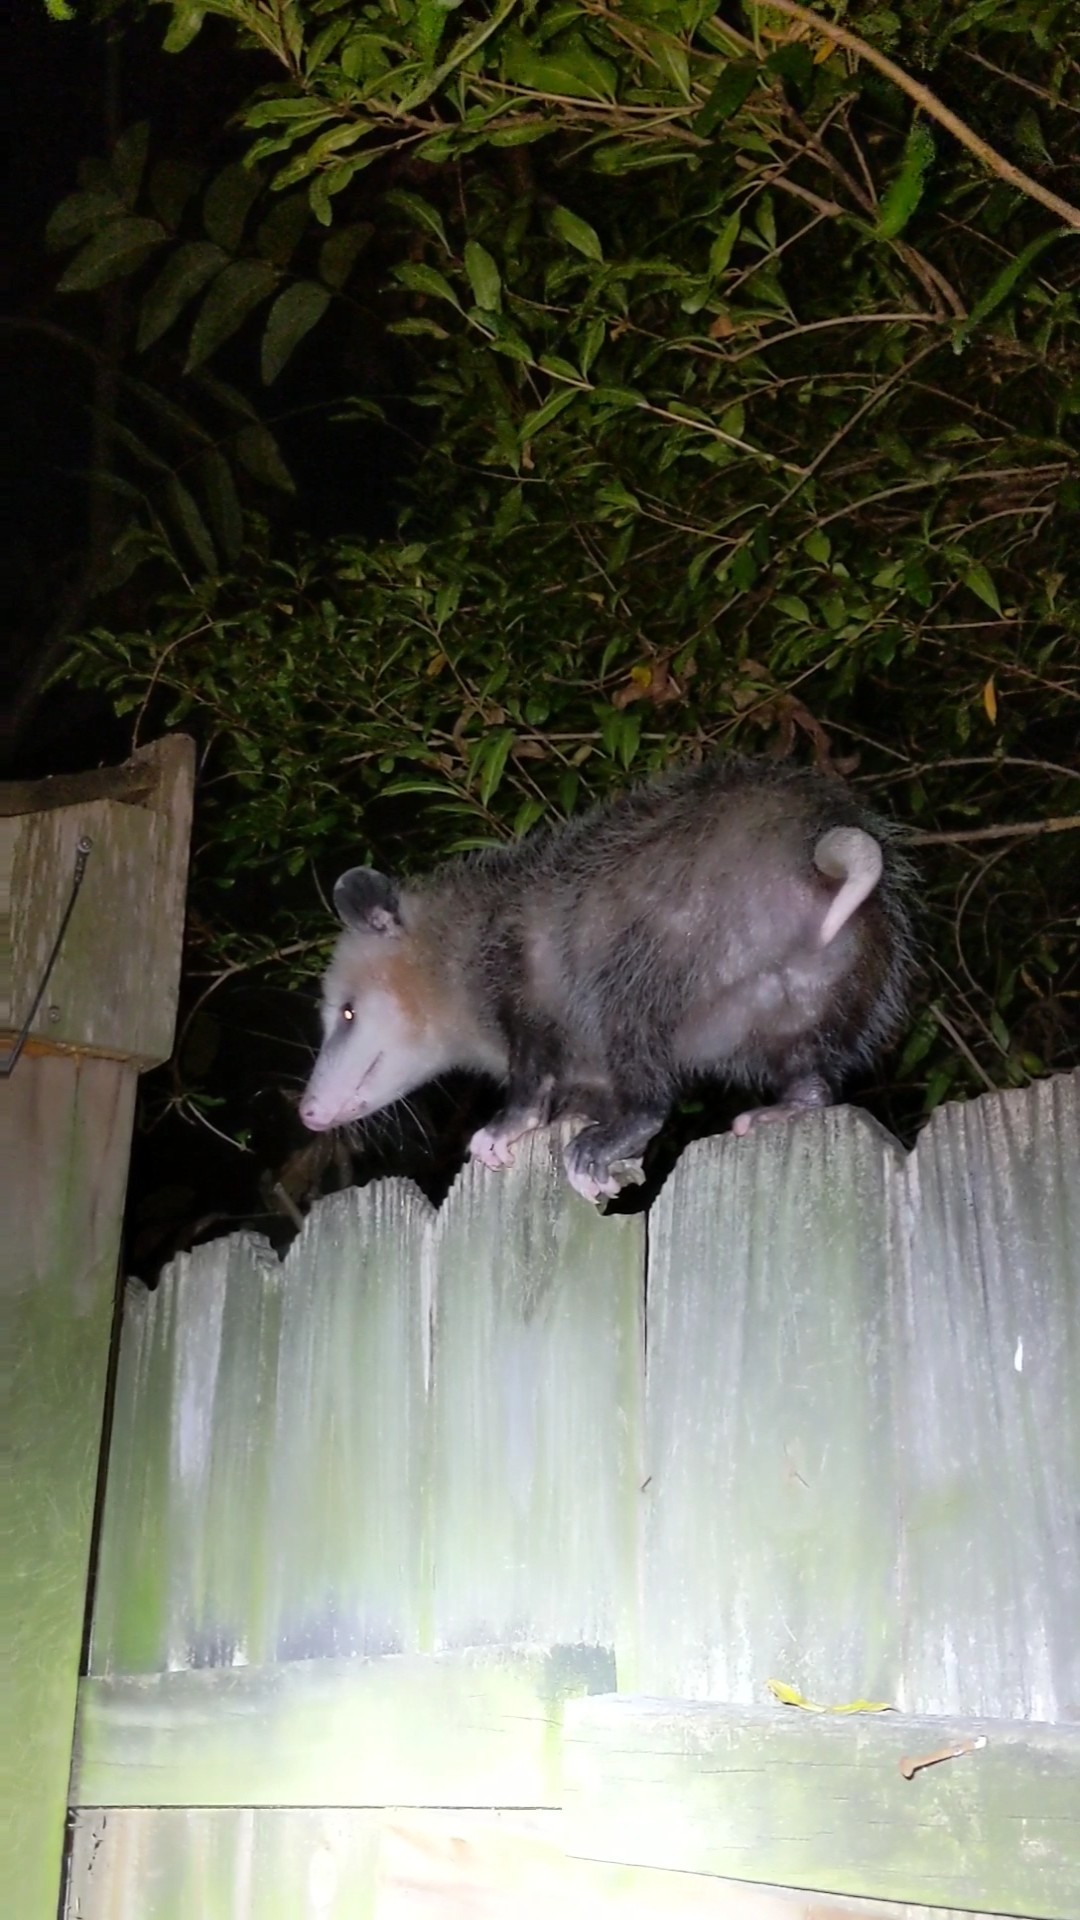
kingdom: Animalia
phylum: Chordata
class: Mammalia
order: Didelphimorphia
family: Didelphidae
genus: Didelphis
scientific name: Didelphis virginiana
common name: Virginia opossum
